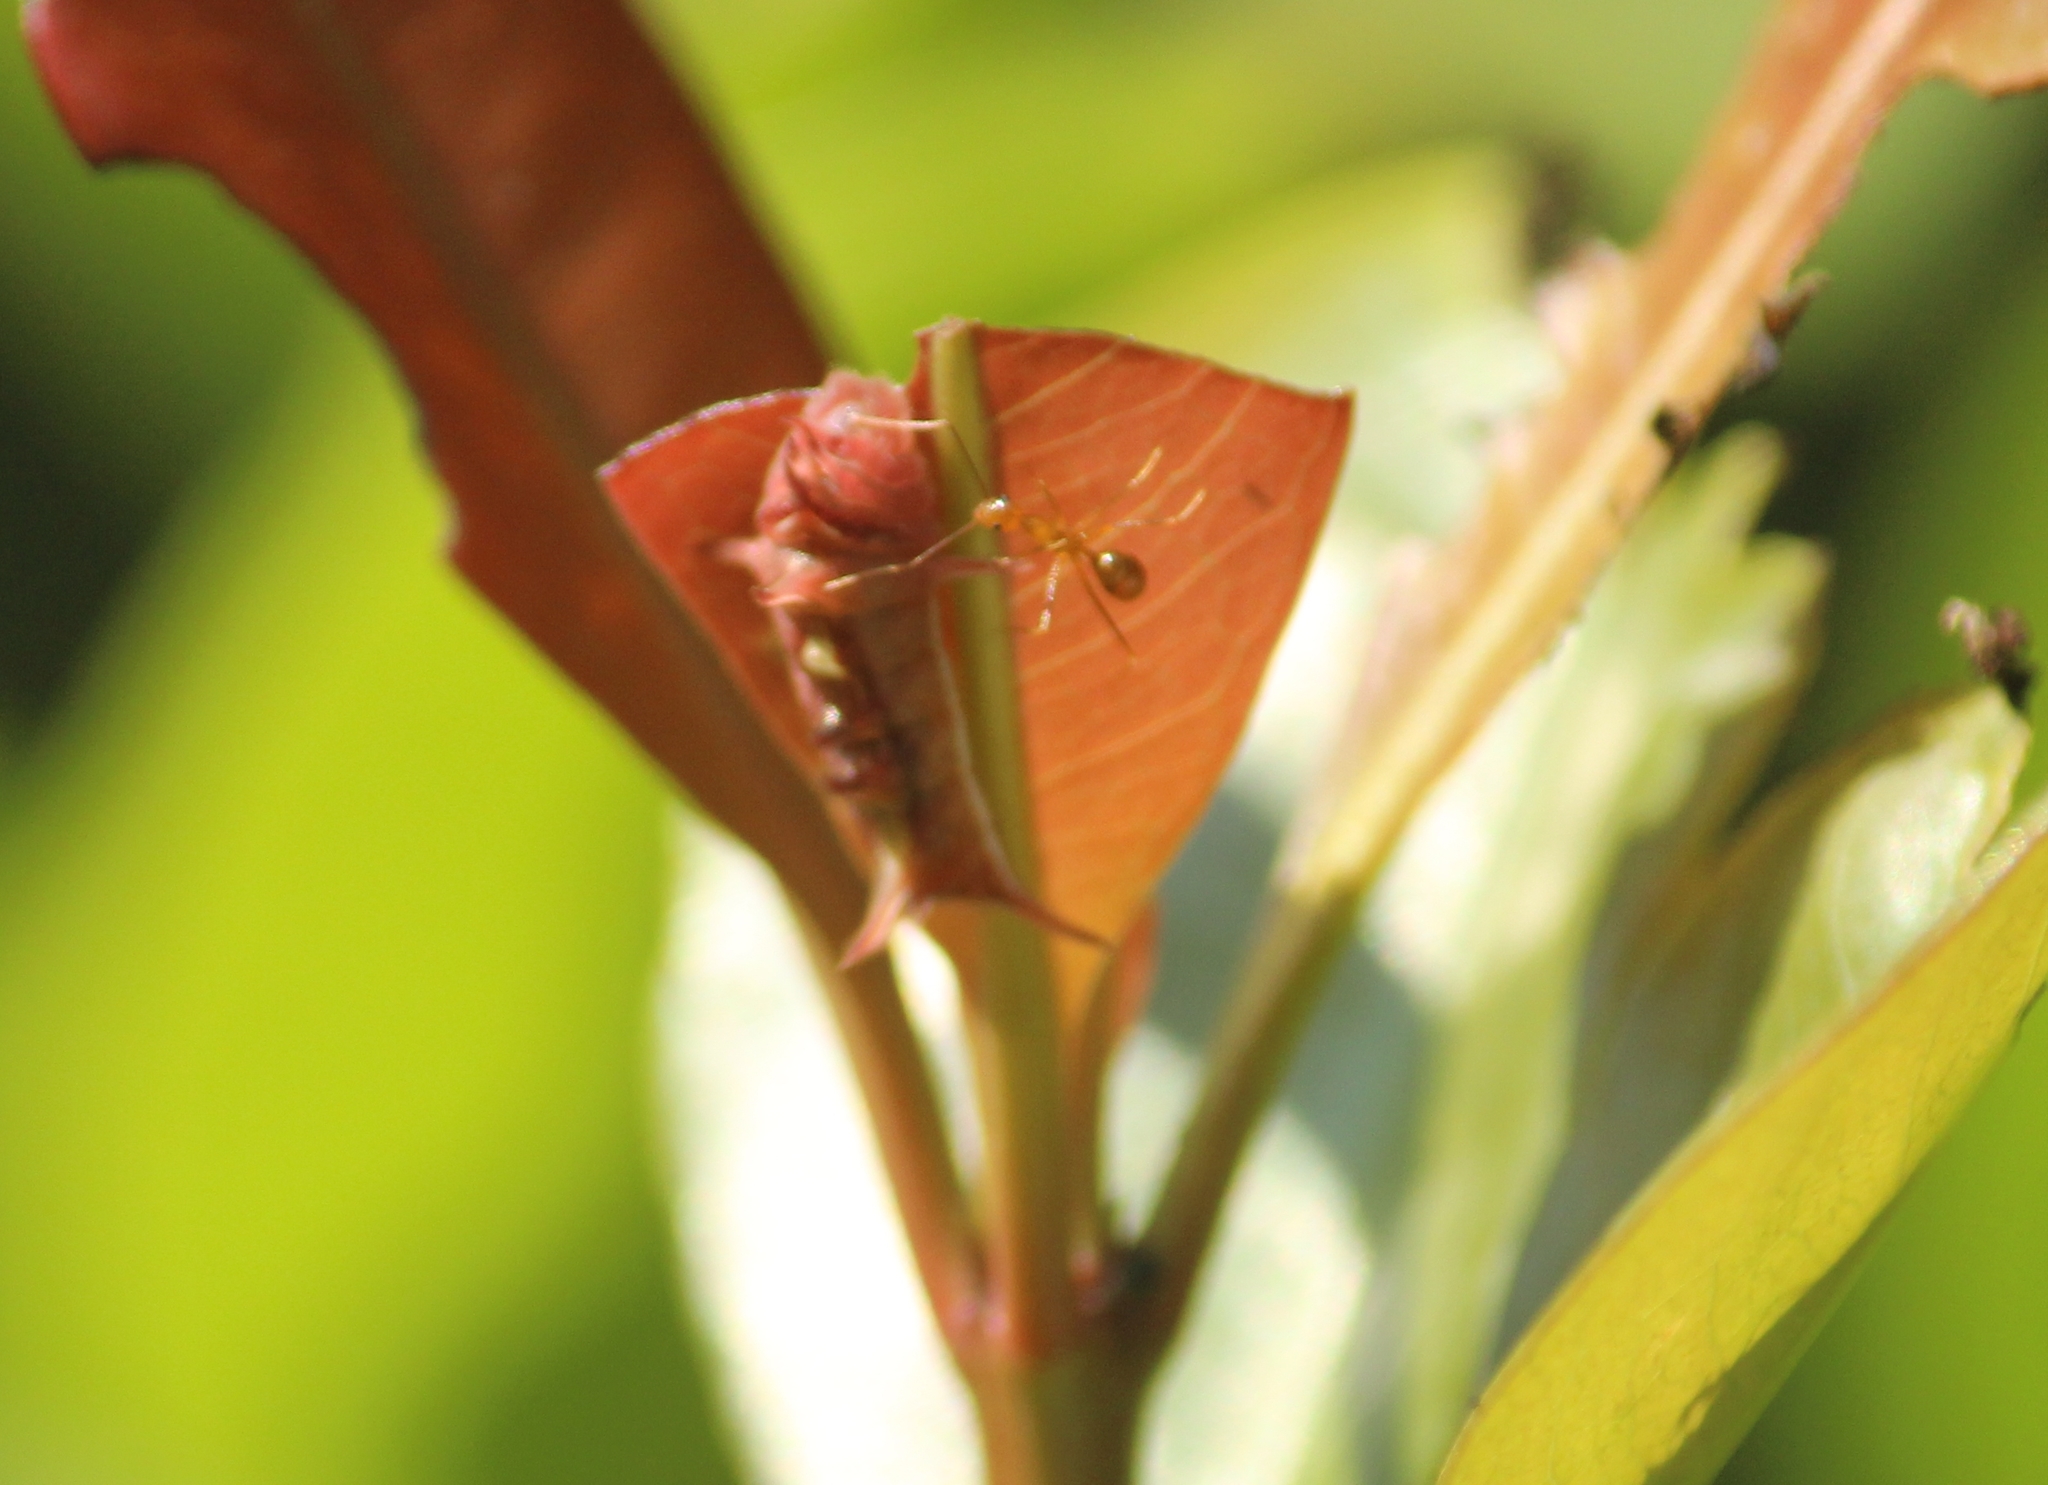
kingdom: Animalia
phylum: Arthropoda
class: Insecta
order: Lepidoptera
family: Lycaenidae
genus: Rathinda
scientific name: Rathinda amor
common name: Monkey puzzle
